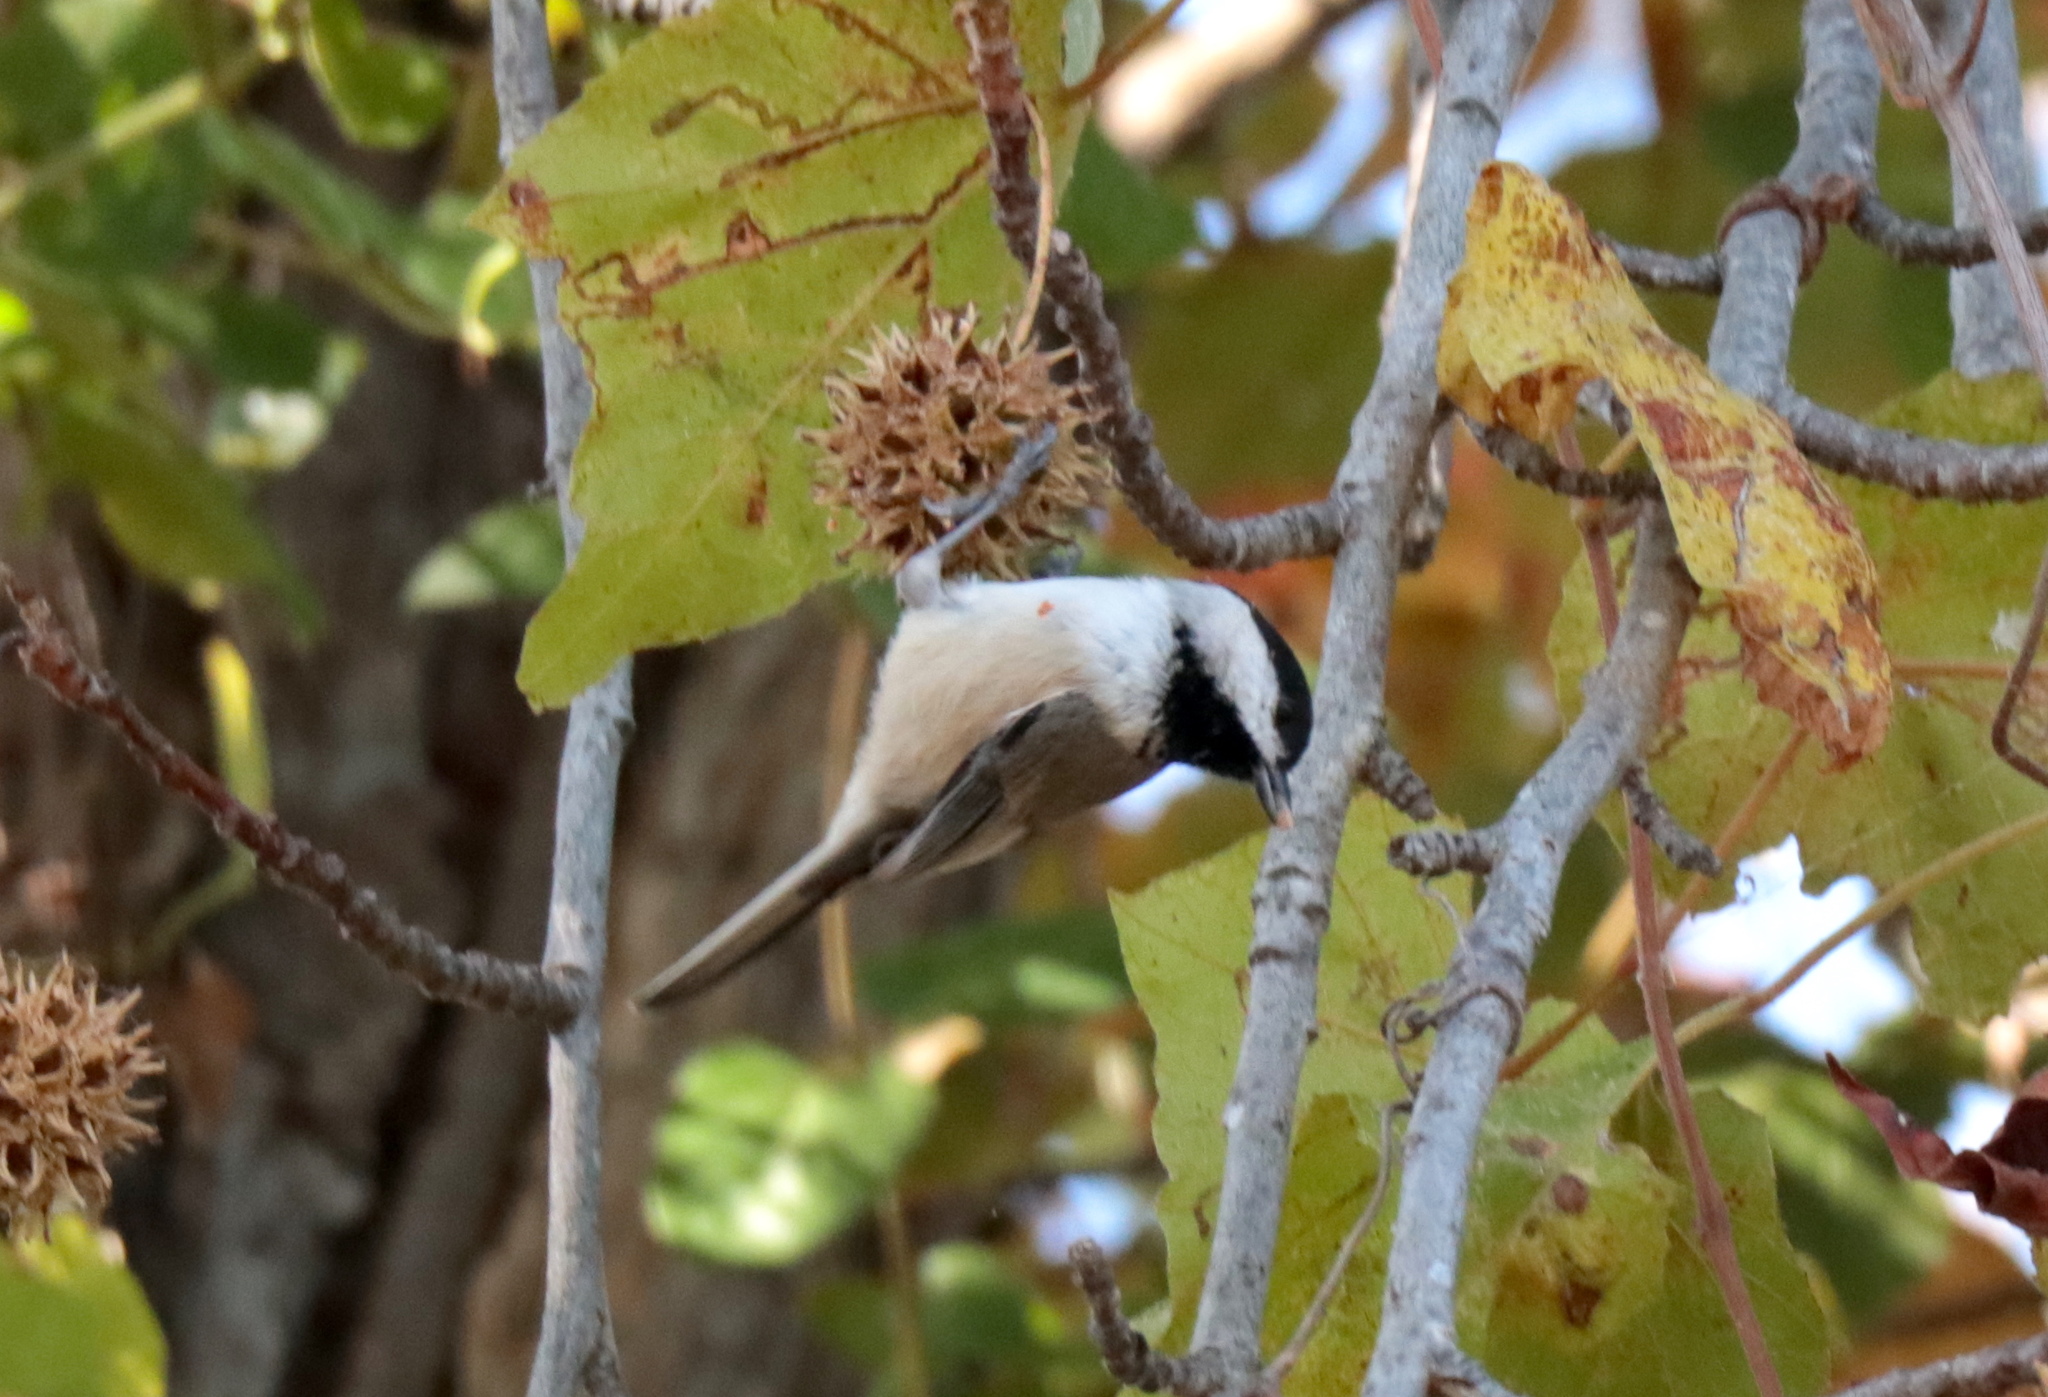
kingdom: Animalia
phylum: Chordata
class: Aves
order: Passeriformes
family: Paridae
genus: Poecile
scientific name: Poecile carolinensis
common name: Carolina chickadee
